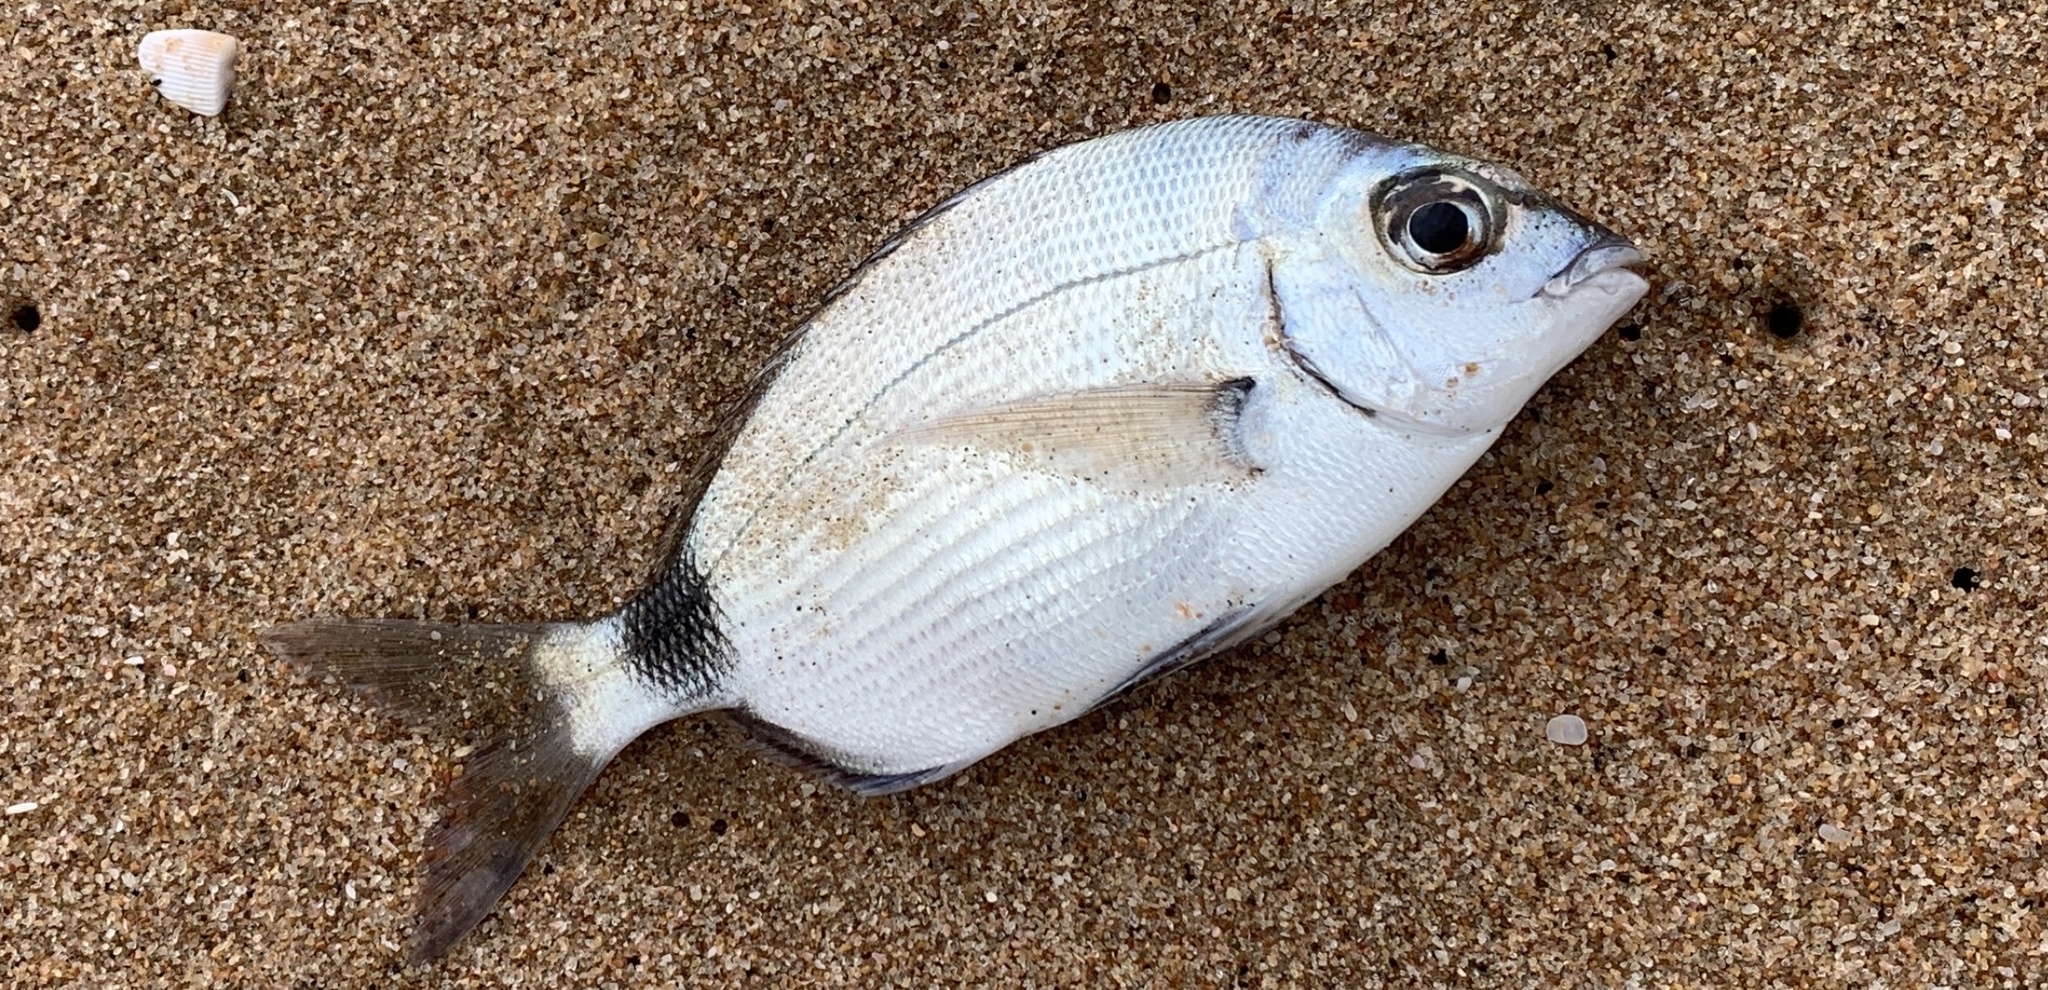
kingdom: Animalia
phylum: Chordata
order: Perciformes
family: Sparidae
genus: Diplodus
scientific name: Diplodus capensis
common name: Blacktail
